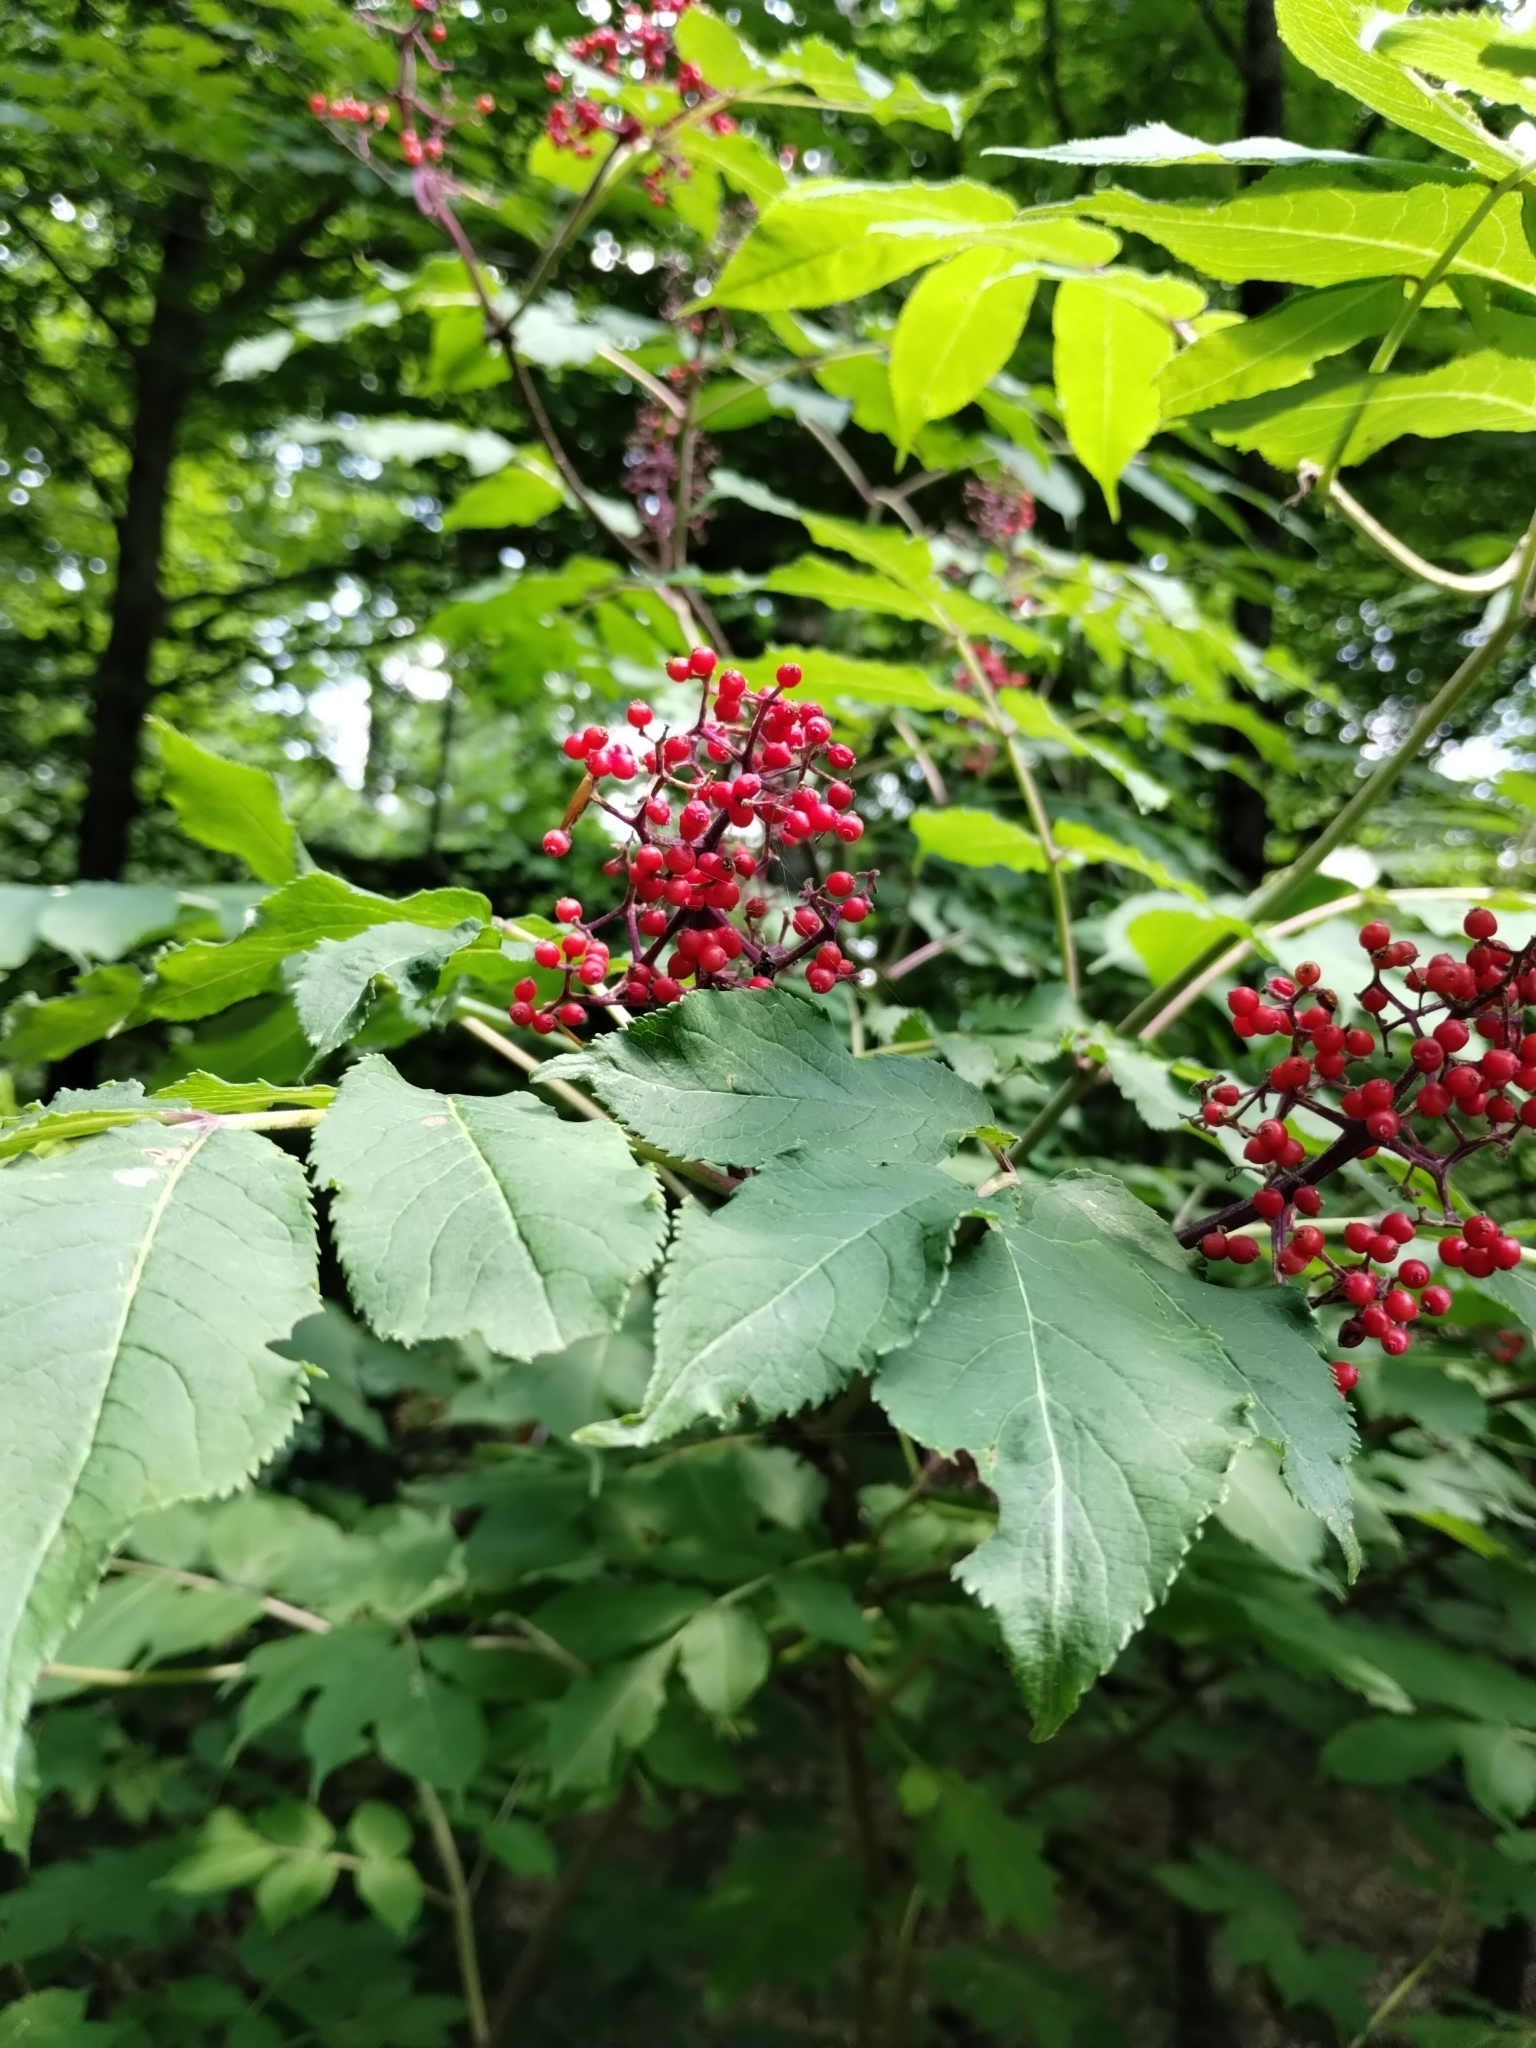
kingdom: Plantae
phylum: Tracheophyta
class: Magnoliopsida
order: Dipsacales
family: Viburnaceae
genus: Sambucus
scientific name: Sambucus racemosa
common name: Red-berried elder
